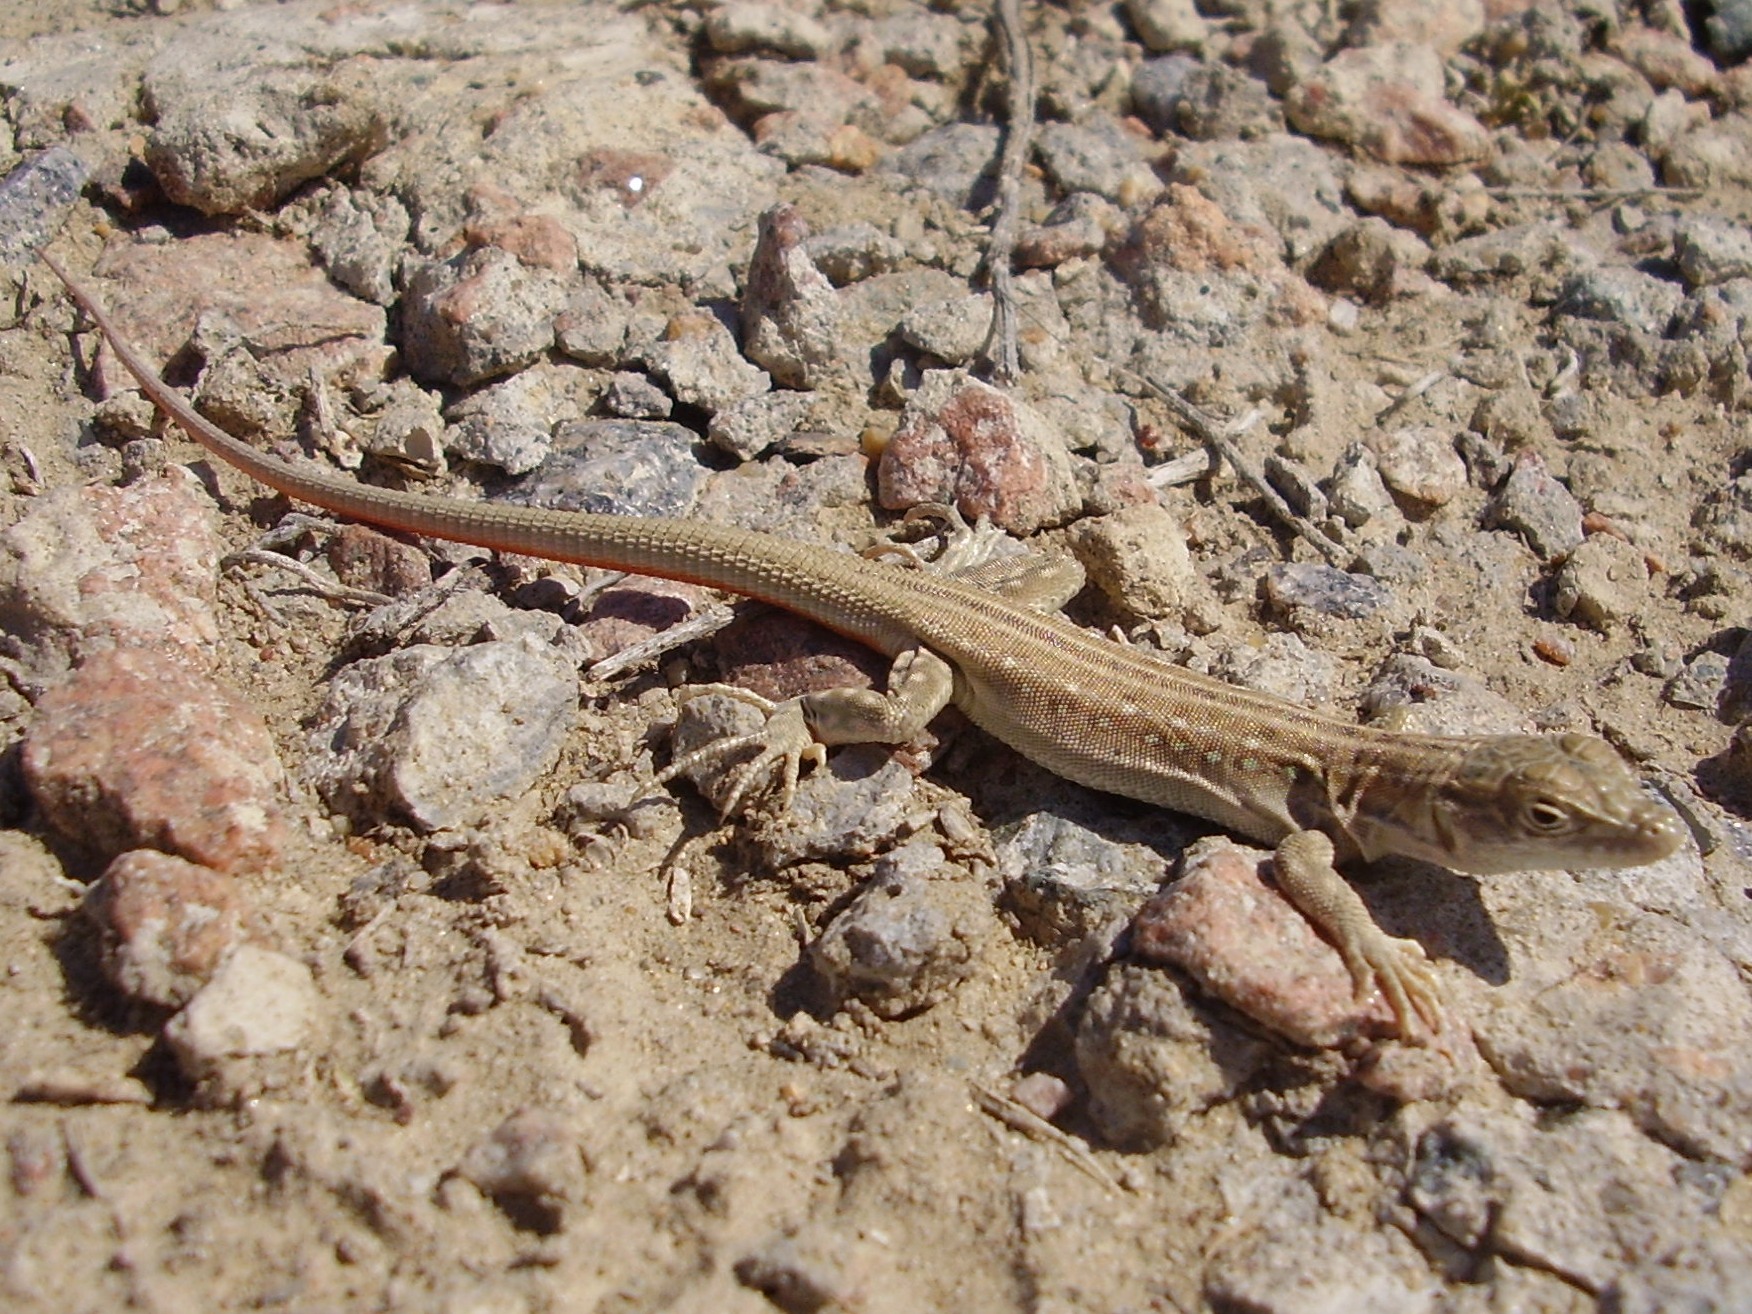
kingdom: Animalia
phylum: Chordata
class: Squamata
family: Lacertidae
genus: Eremias
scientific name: Eremias velox
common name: Central asian racerunner
